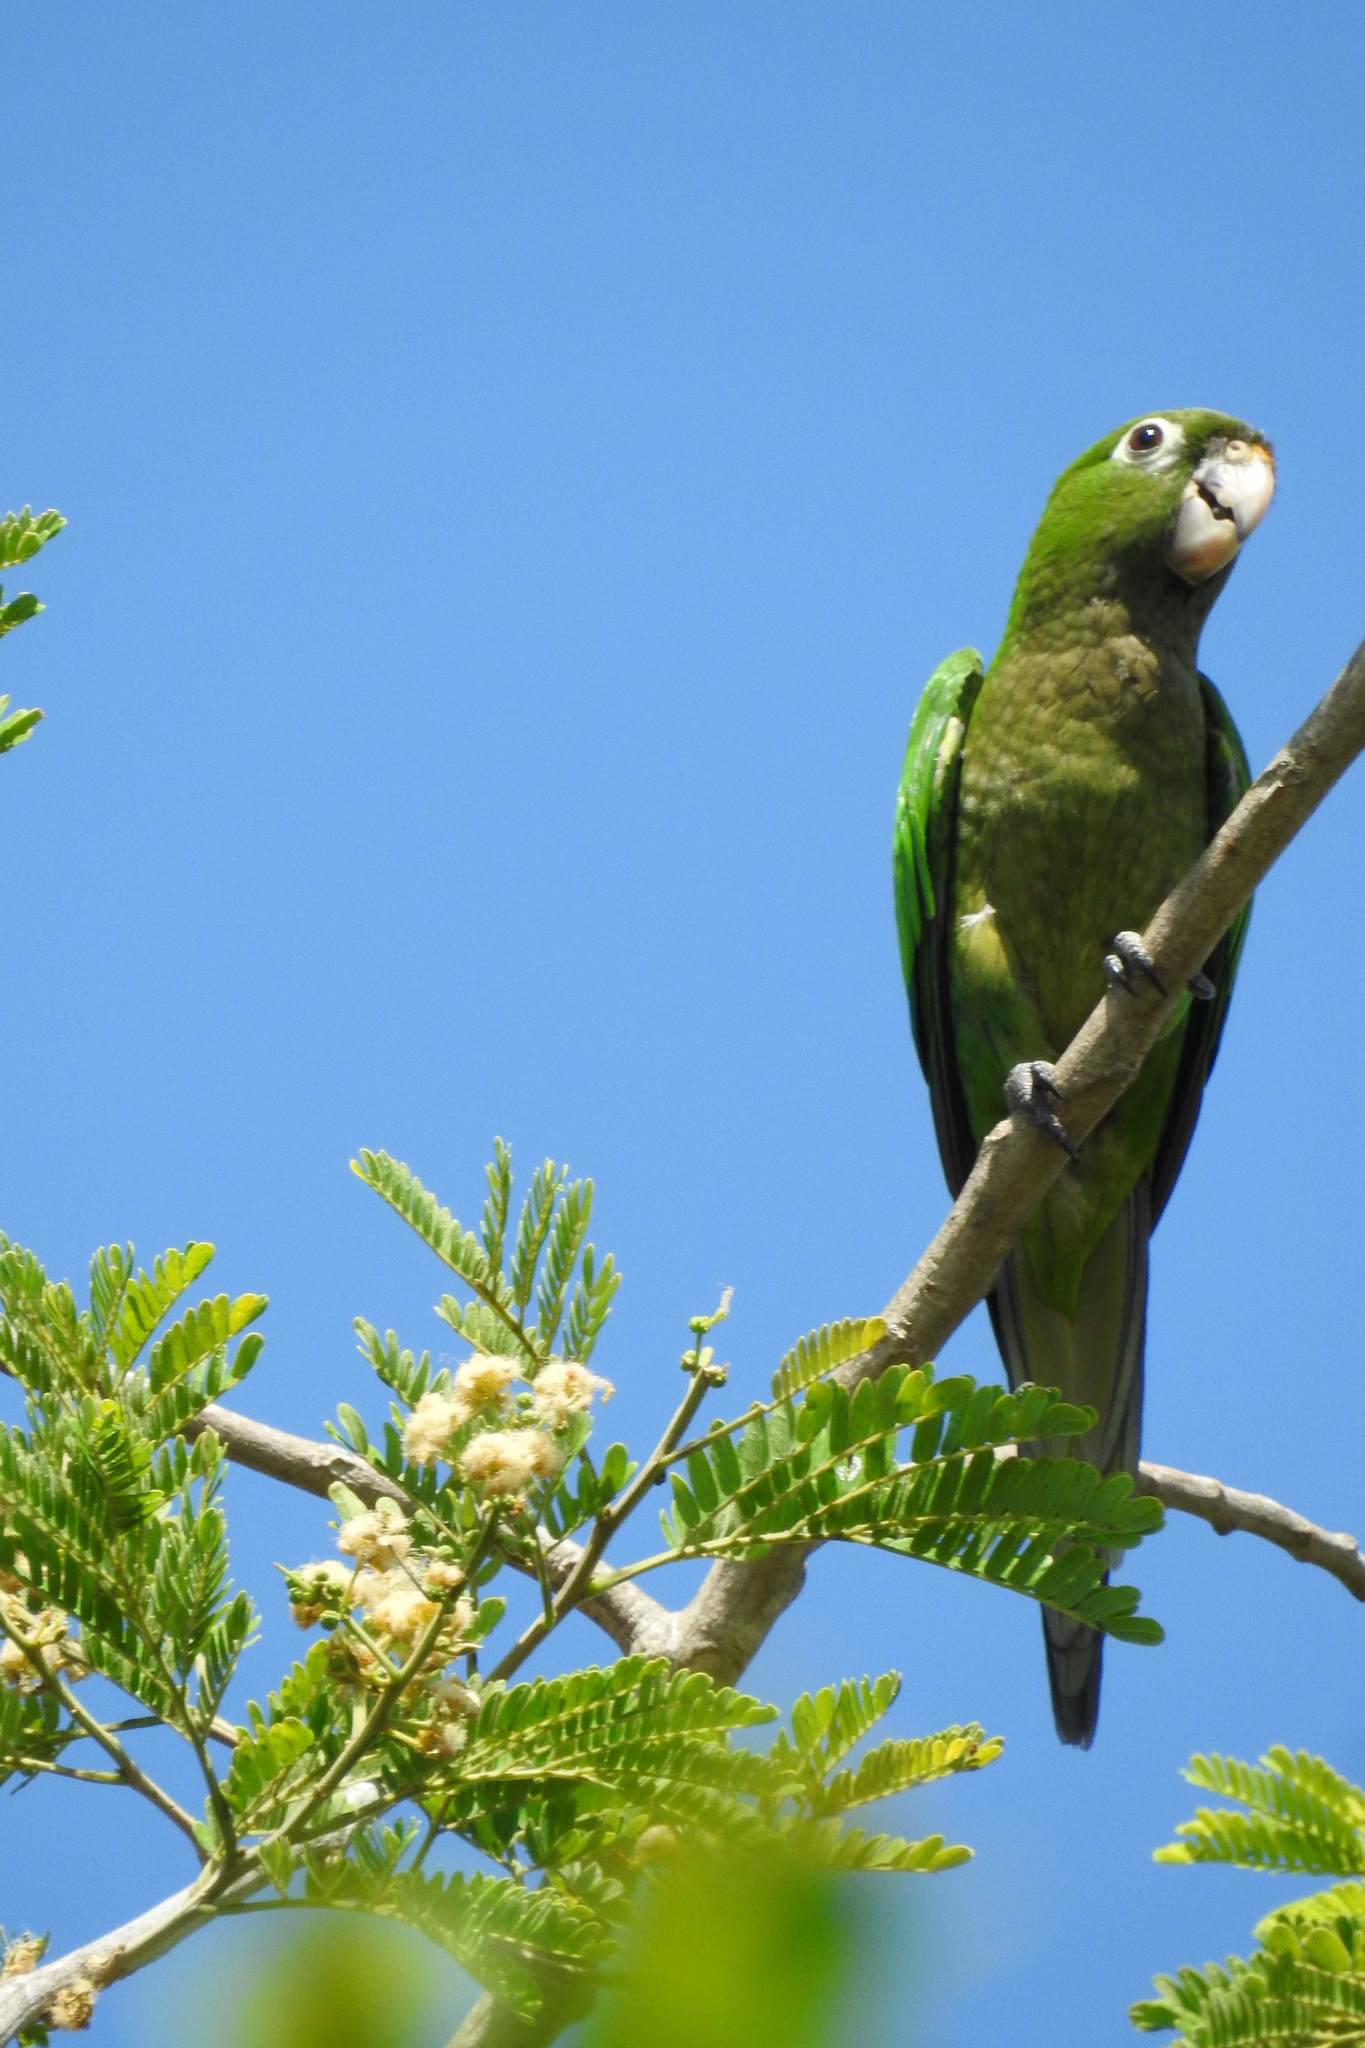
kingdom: Animalia
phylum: Chordata
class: Aves
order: Psittaciformes
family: Psittacidae
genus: Aratinga
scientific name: Aratinga nana
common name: Olive-throated parakeet
